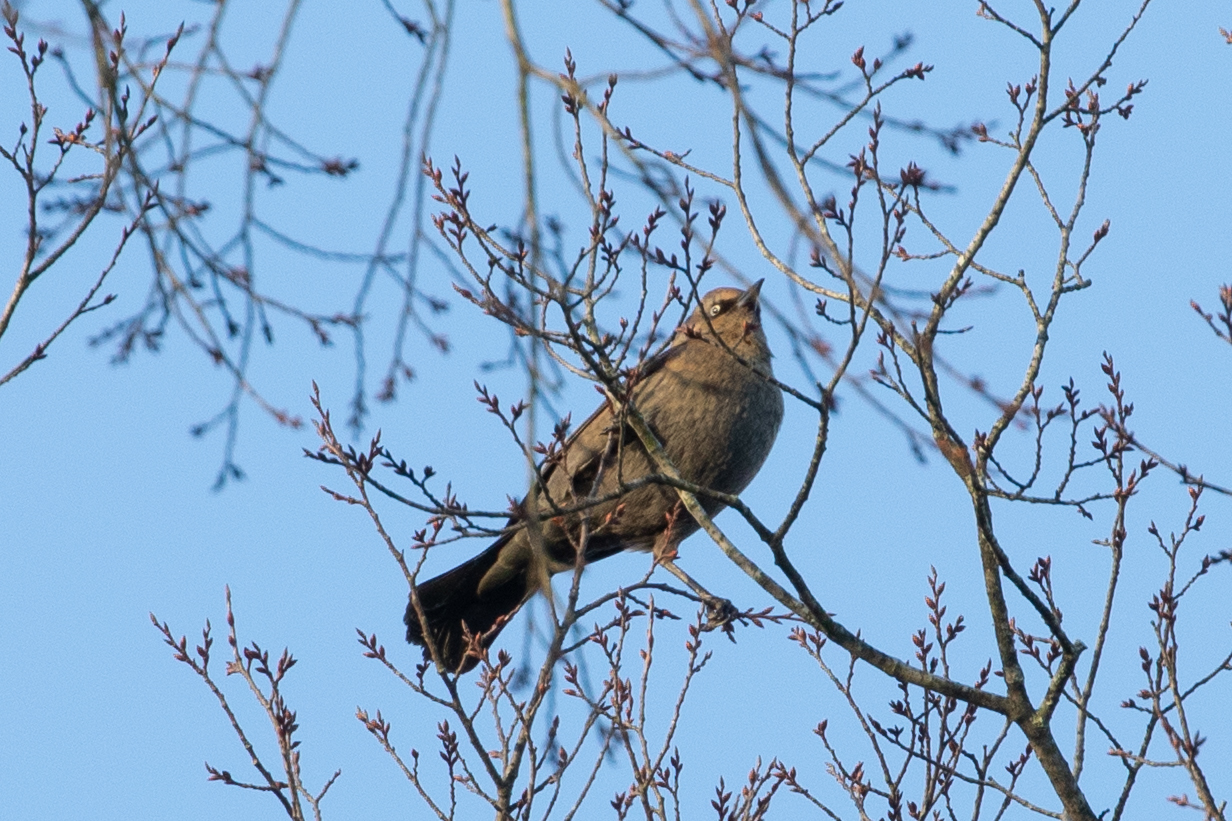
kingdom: Animalia
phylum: Chordata
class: Aves
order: Passeriformes
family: Icteridae
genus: Euphagus
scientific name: Euphagus carolinus
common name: Rusty blackbird
